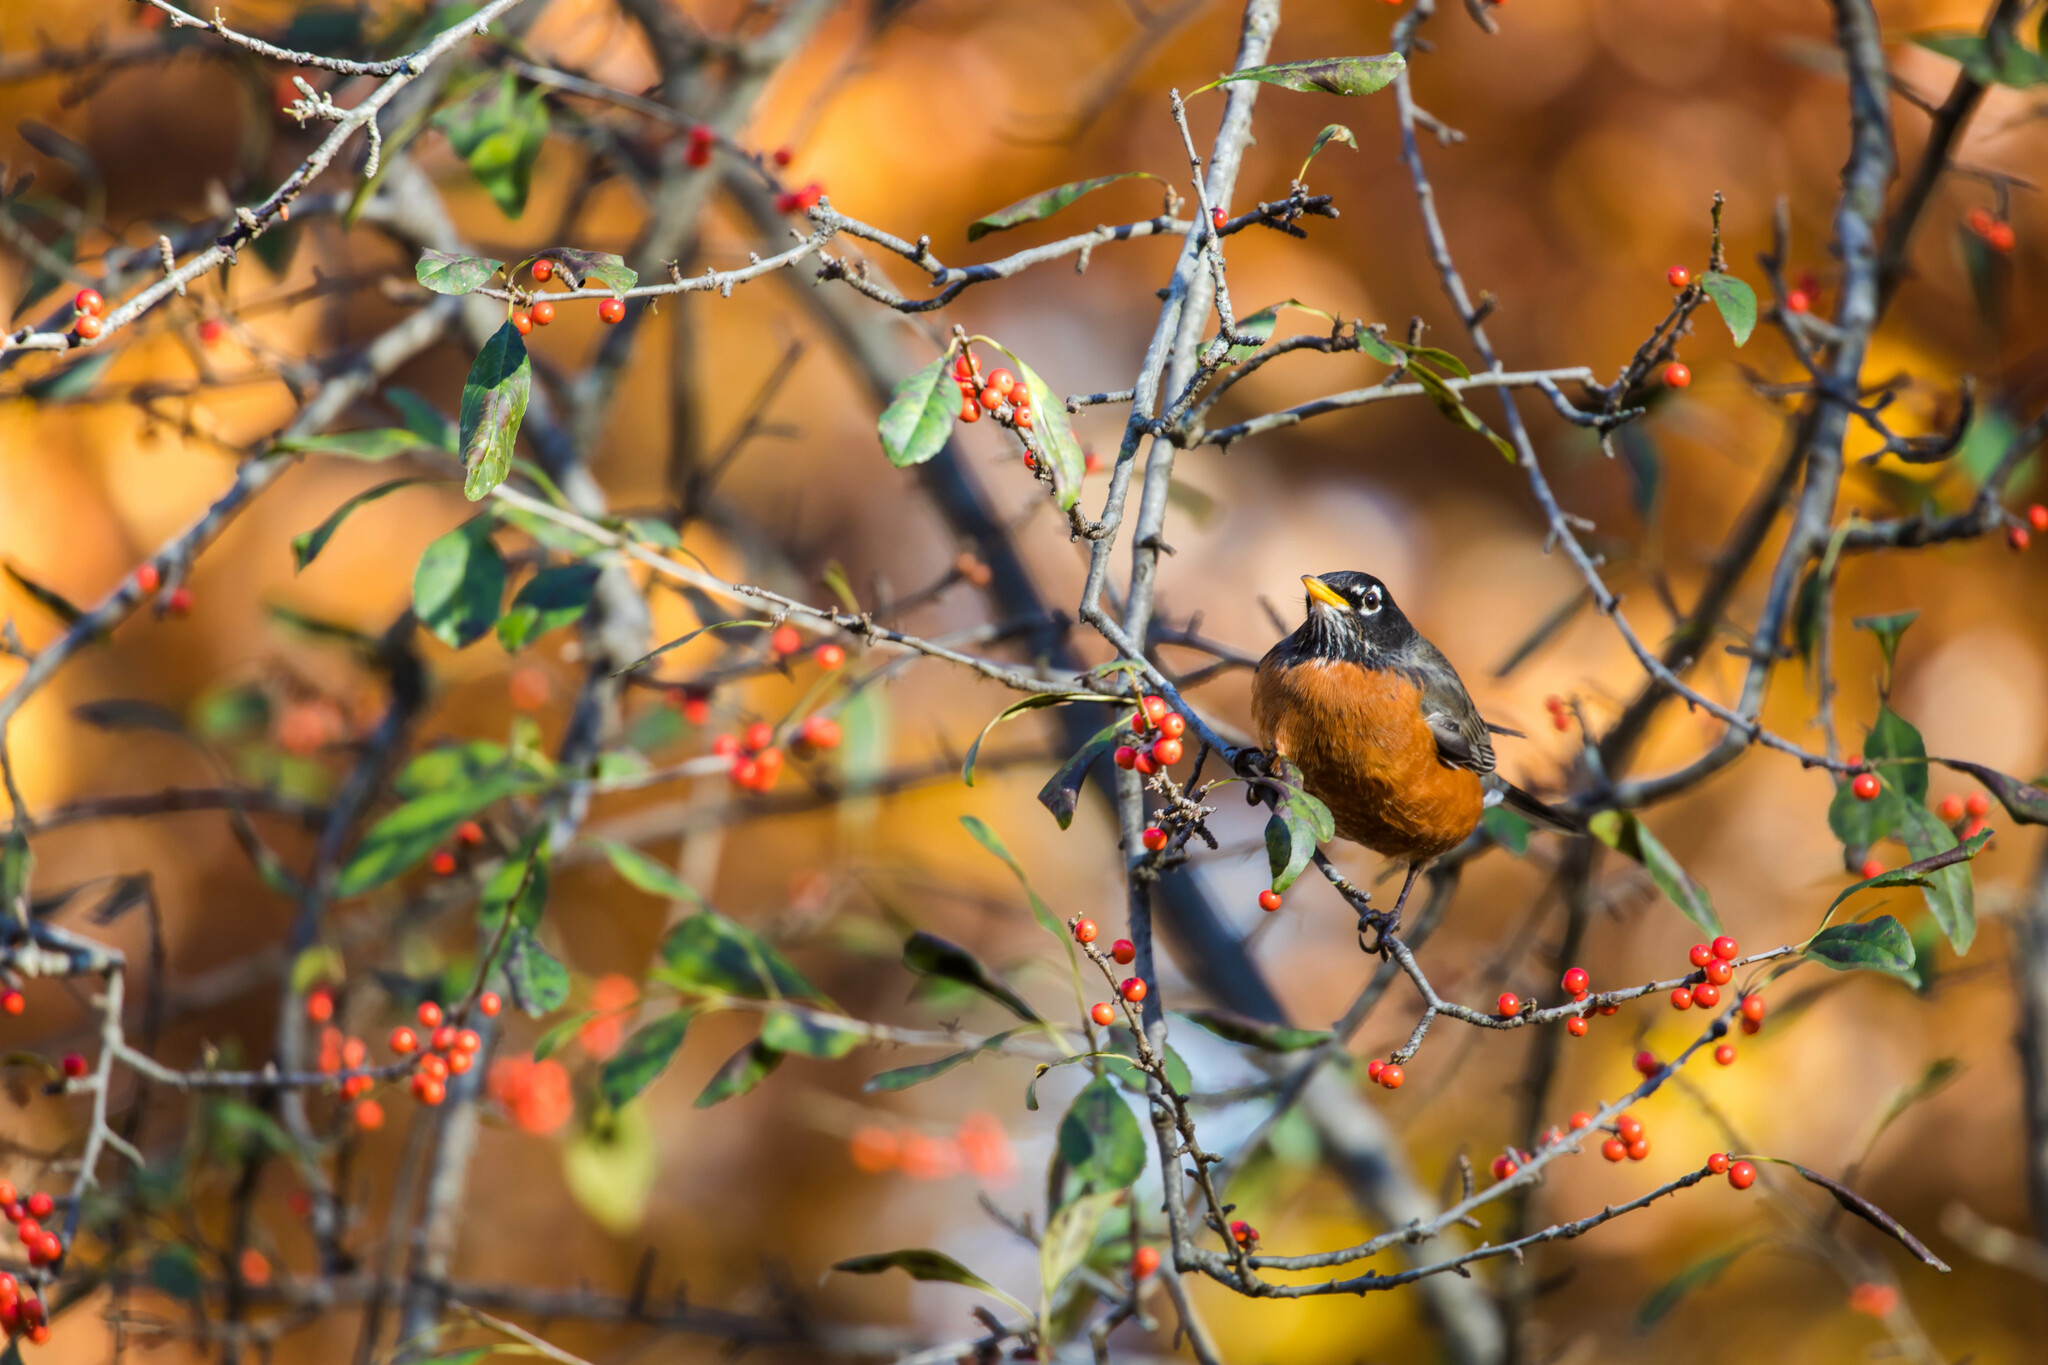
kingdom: Animalia
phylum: Chordata
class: Aves
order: Passeriformes
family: Turdidae
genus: Turdus
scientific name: Turdus migratorius
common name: American robin
